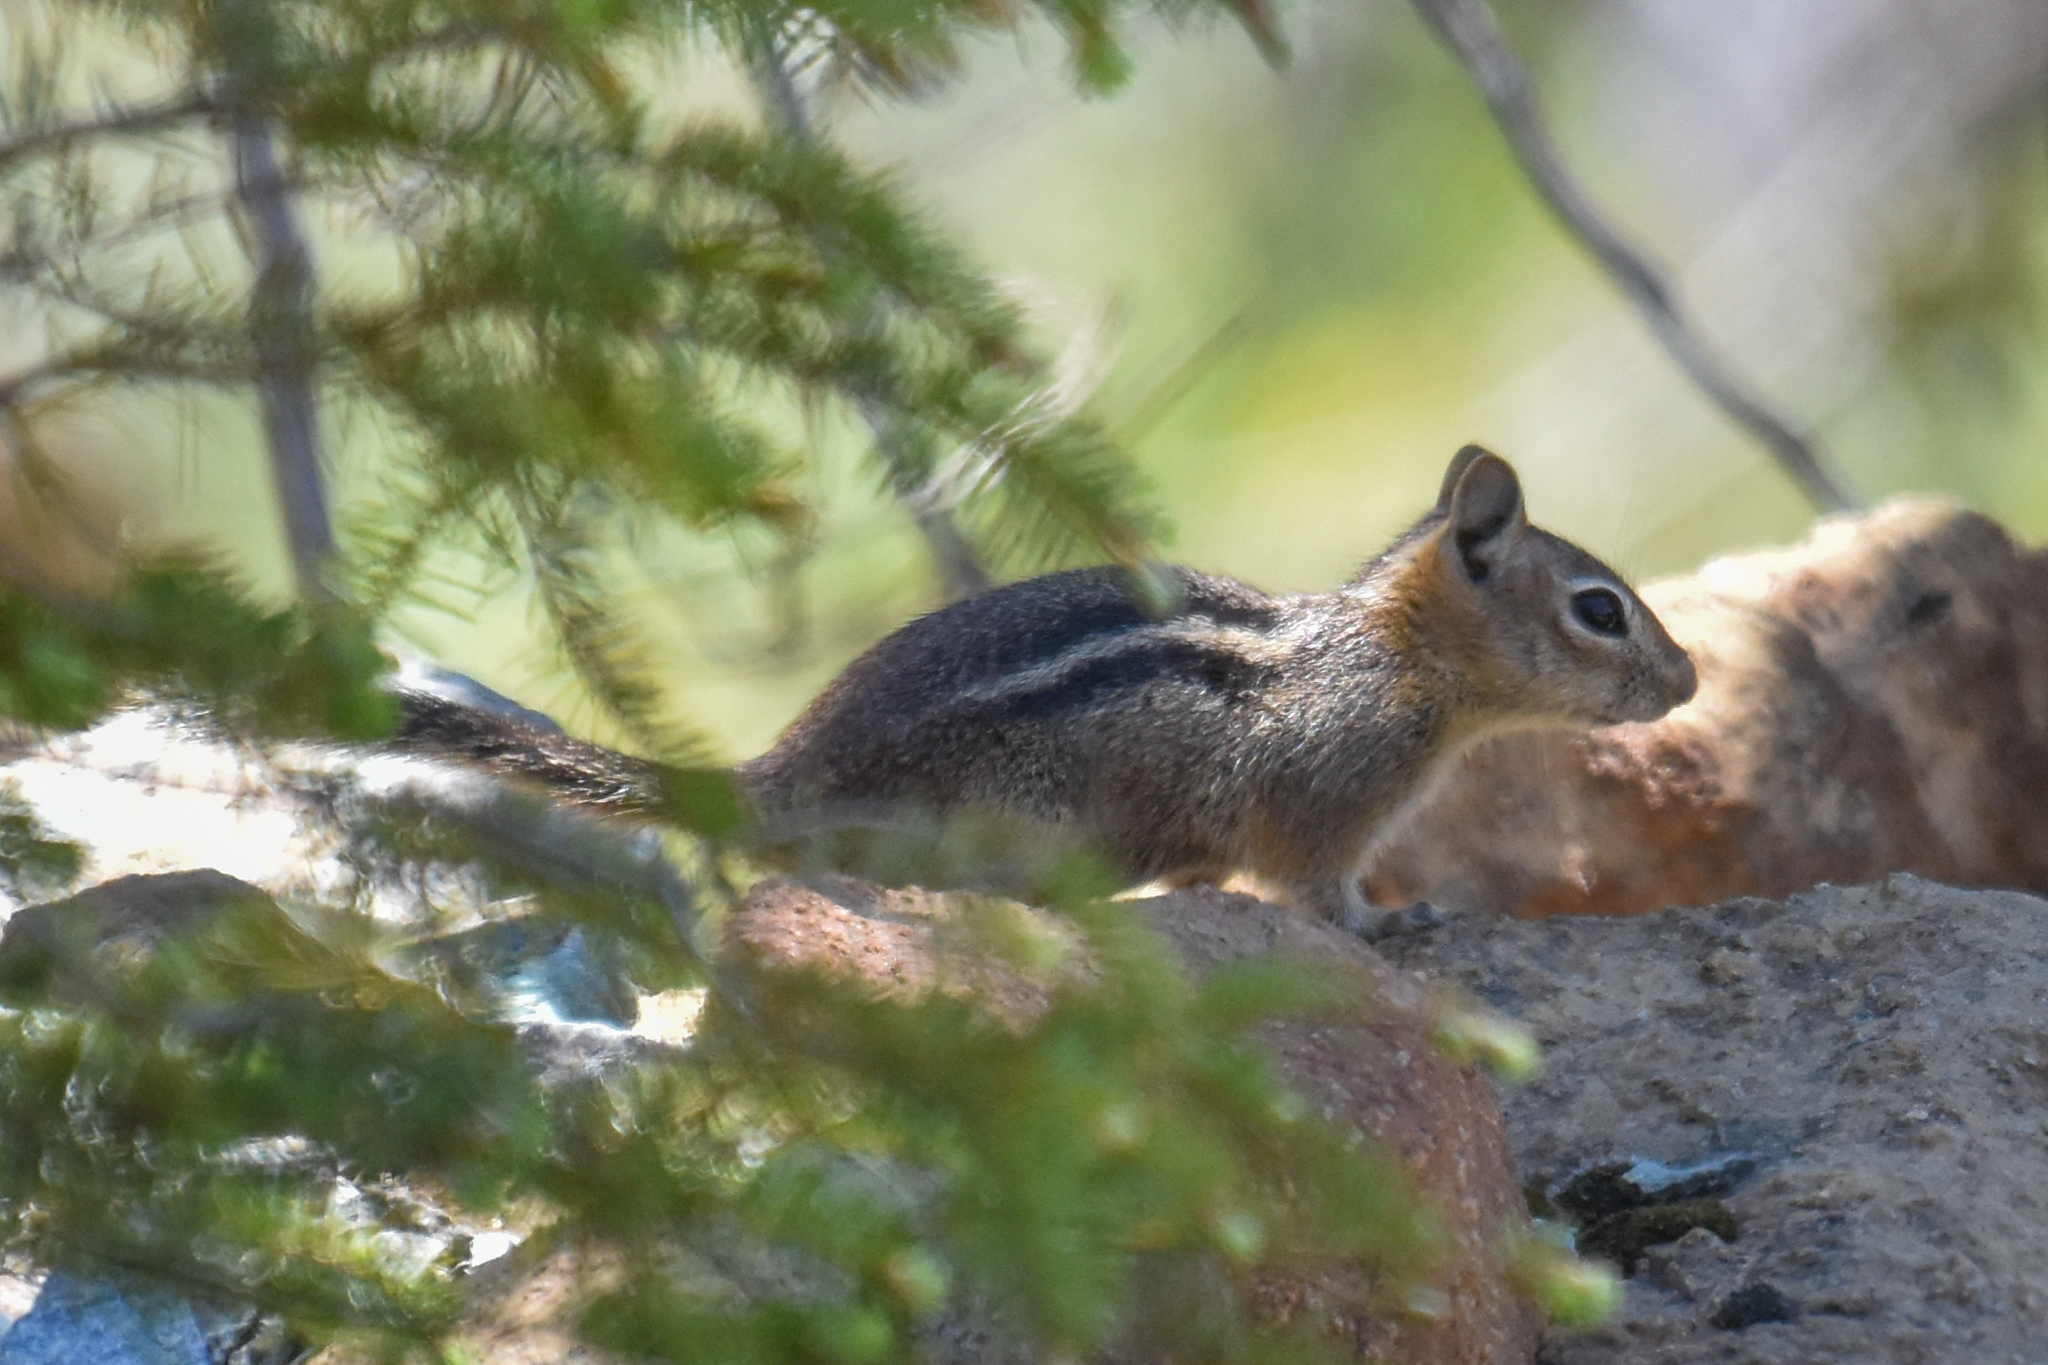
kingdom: Animalia
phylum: Chordata
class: Mammalia
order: Rodentia
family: Sciuridae
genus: Callospermophilus
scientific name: Callospermophilus lateralis
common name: Golden-mantled ground squirrel
